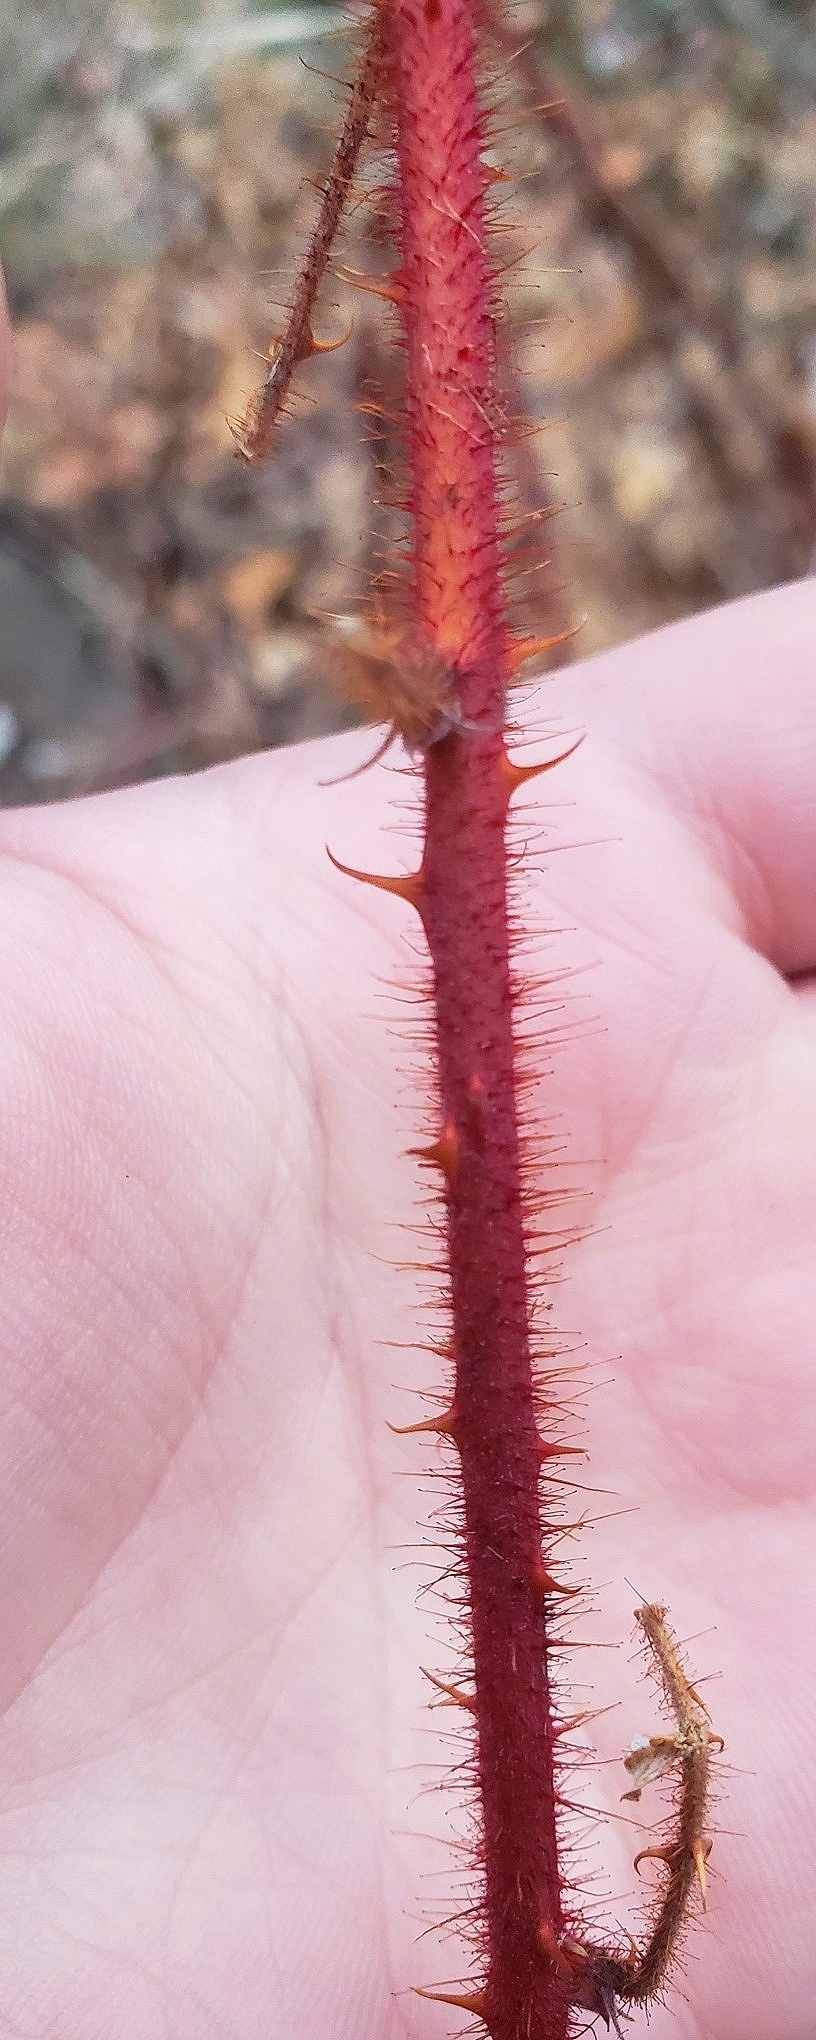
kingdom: Plantae
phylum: Tracheophyta
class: Magnoliopsida
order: Rosales
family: Rosaceae
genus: Rubus
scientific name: Rubus phoenicolasius
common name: Japanese wineberry
